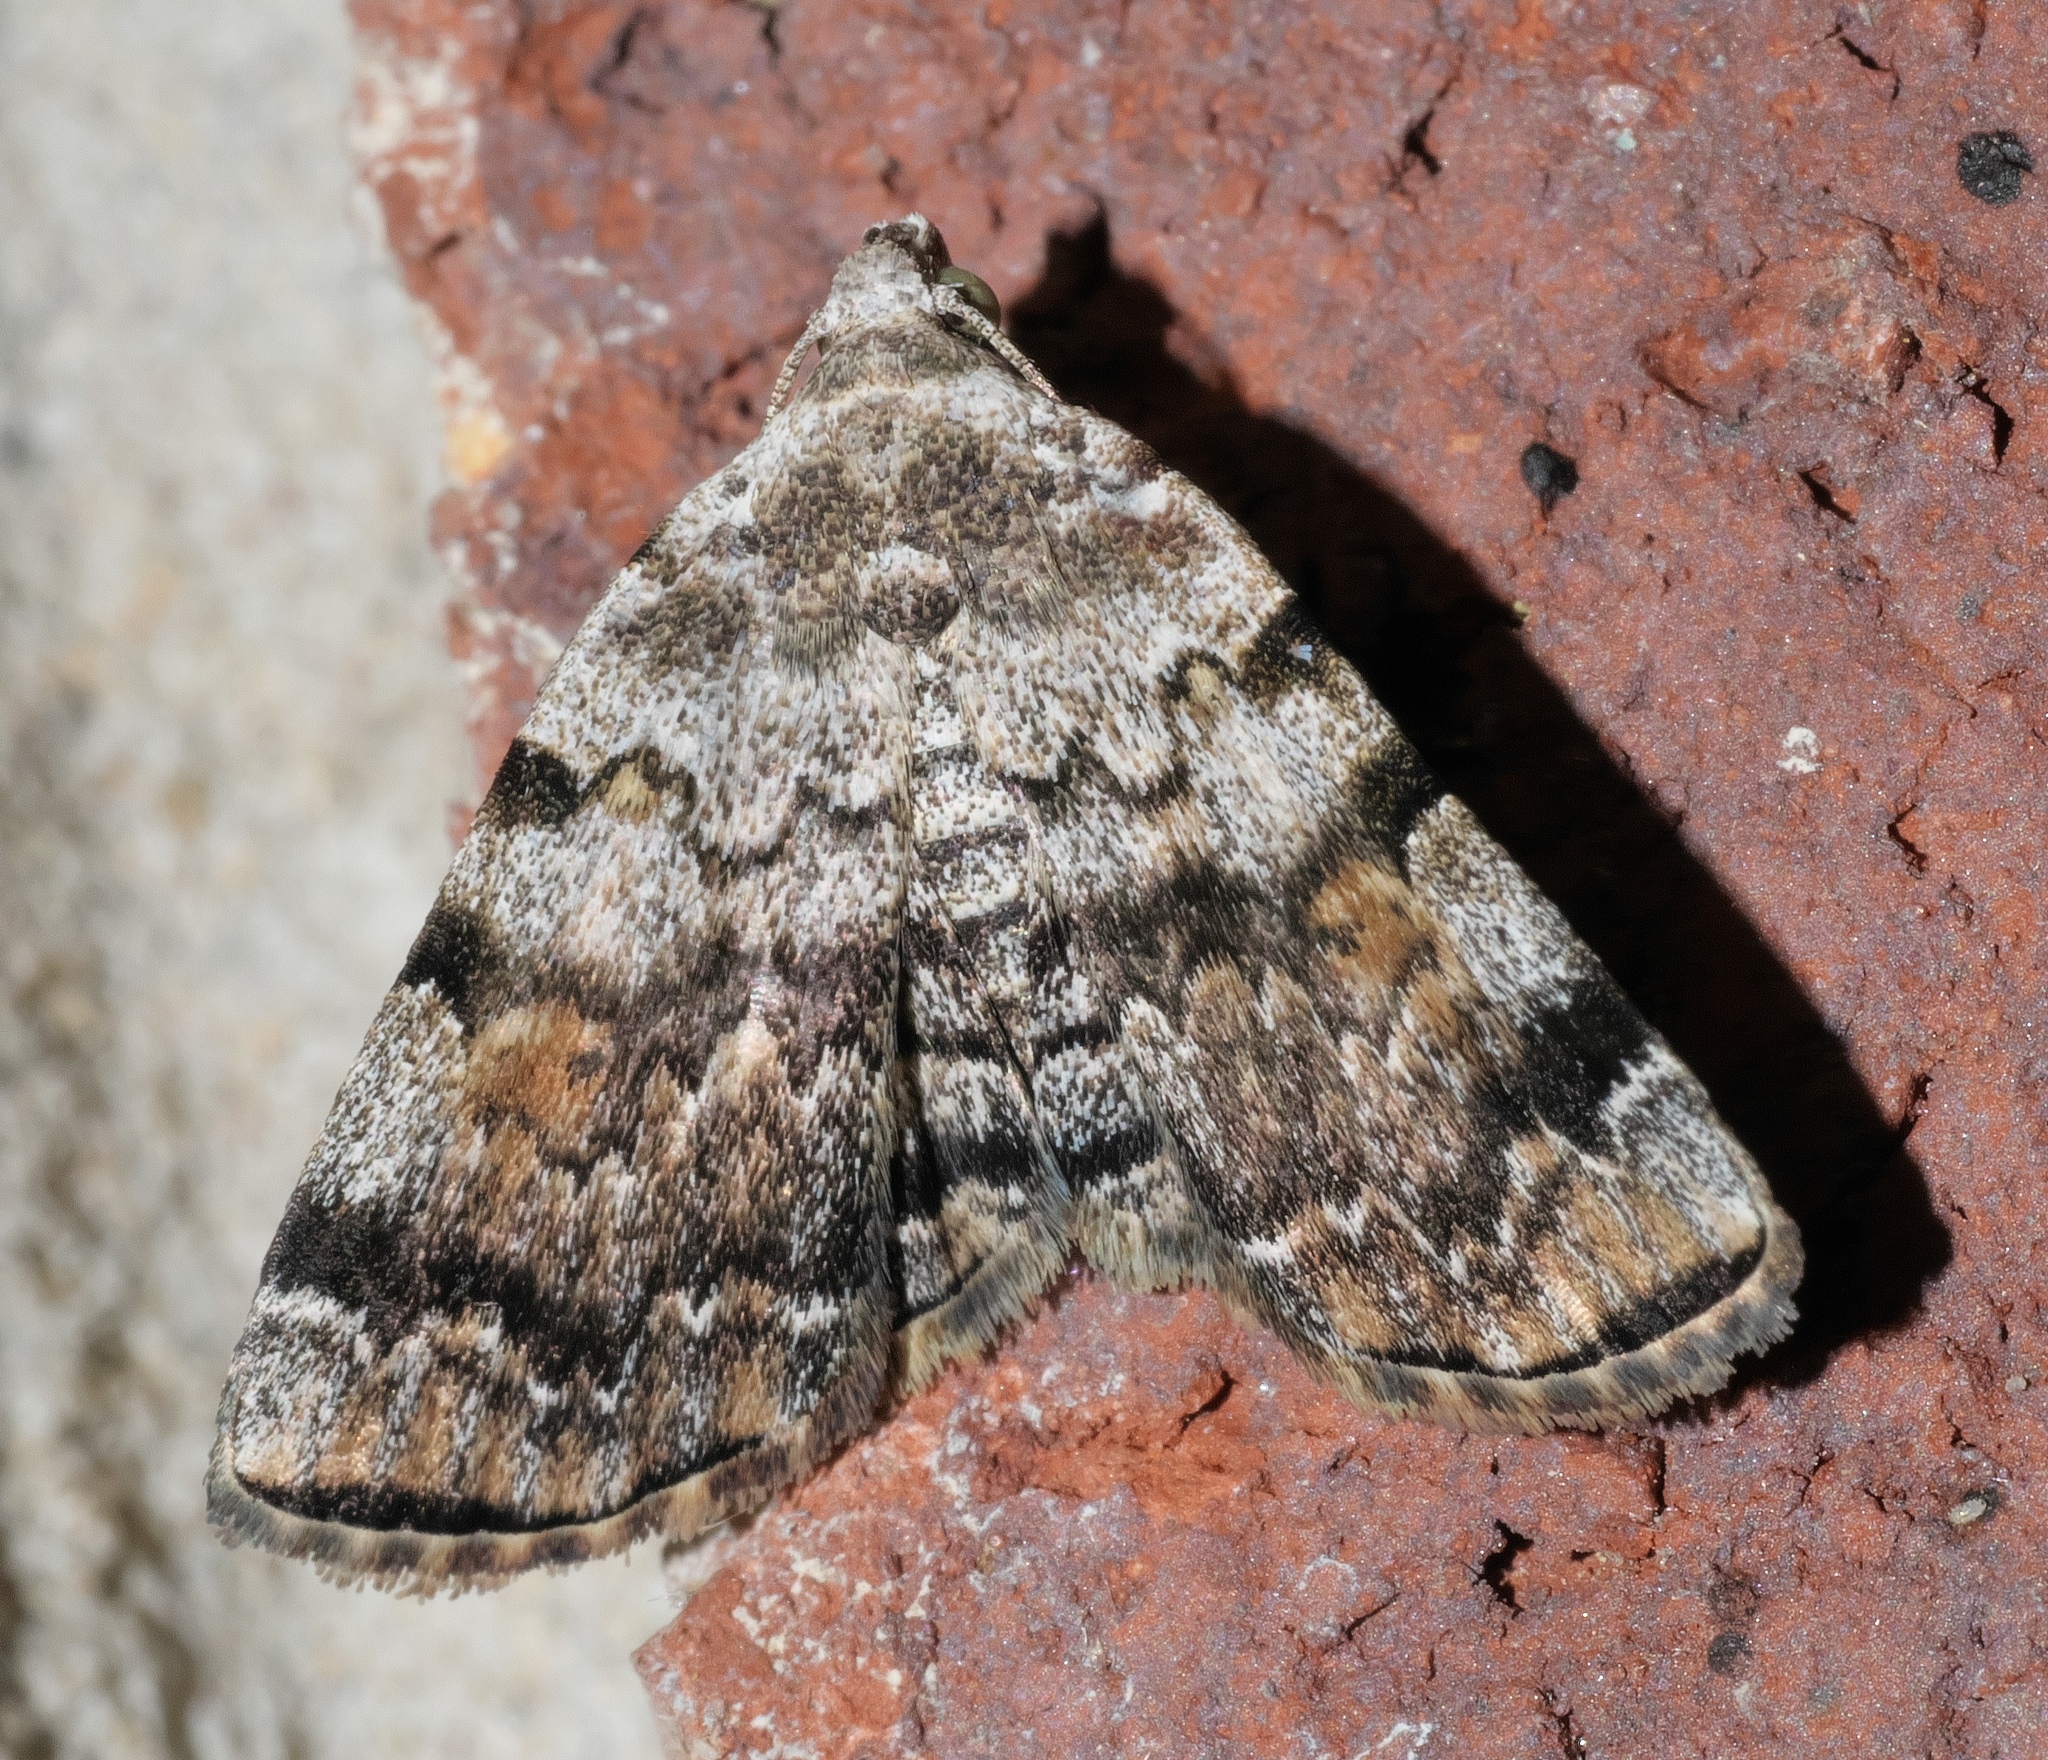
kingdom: Animalia
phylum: Arthropoda
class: Insecta
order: Lepidoptera
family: Erebidae
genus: Idia
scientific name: Idia americalis
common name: American idia moth
